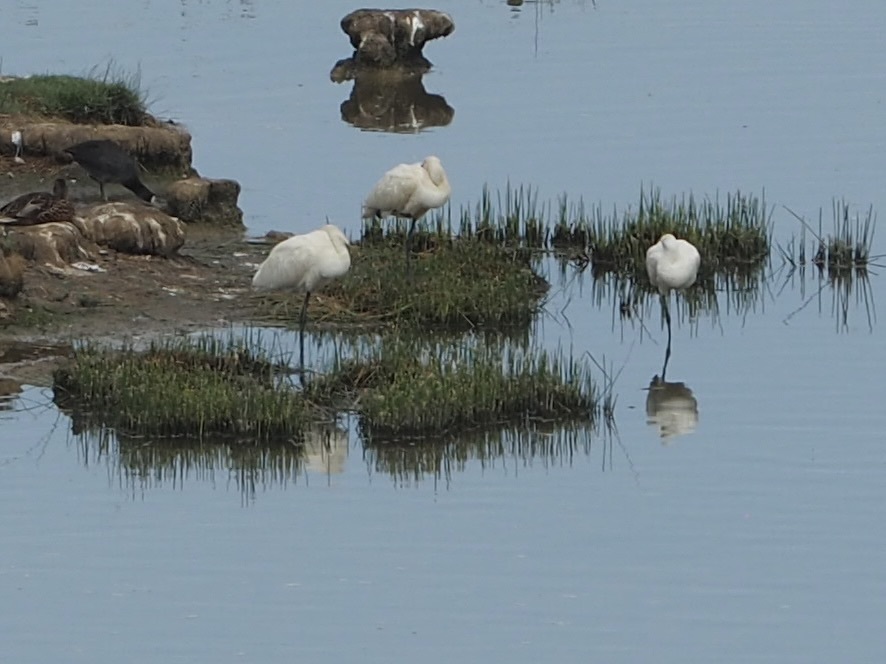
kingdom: Animalia
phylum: Chordata
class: Aves
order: Pelecaniformes
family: Threskiornithidae
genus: Platalea
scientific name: Platalea leucorodia
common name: Eurasian spoonbill
